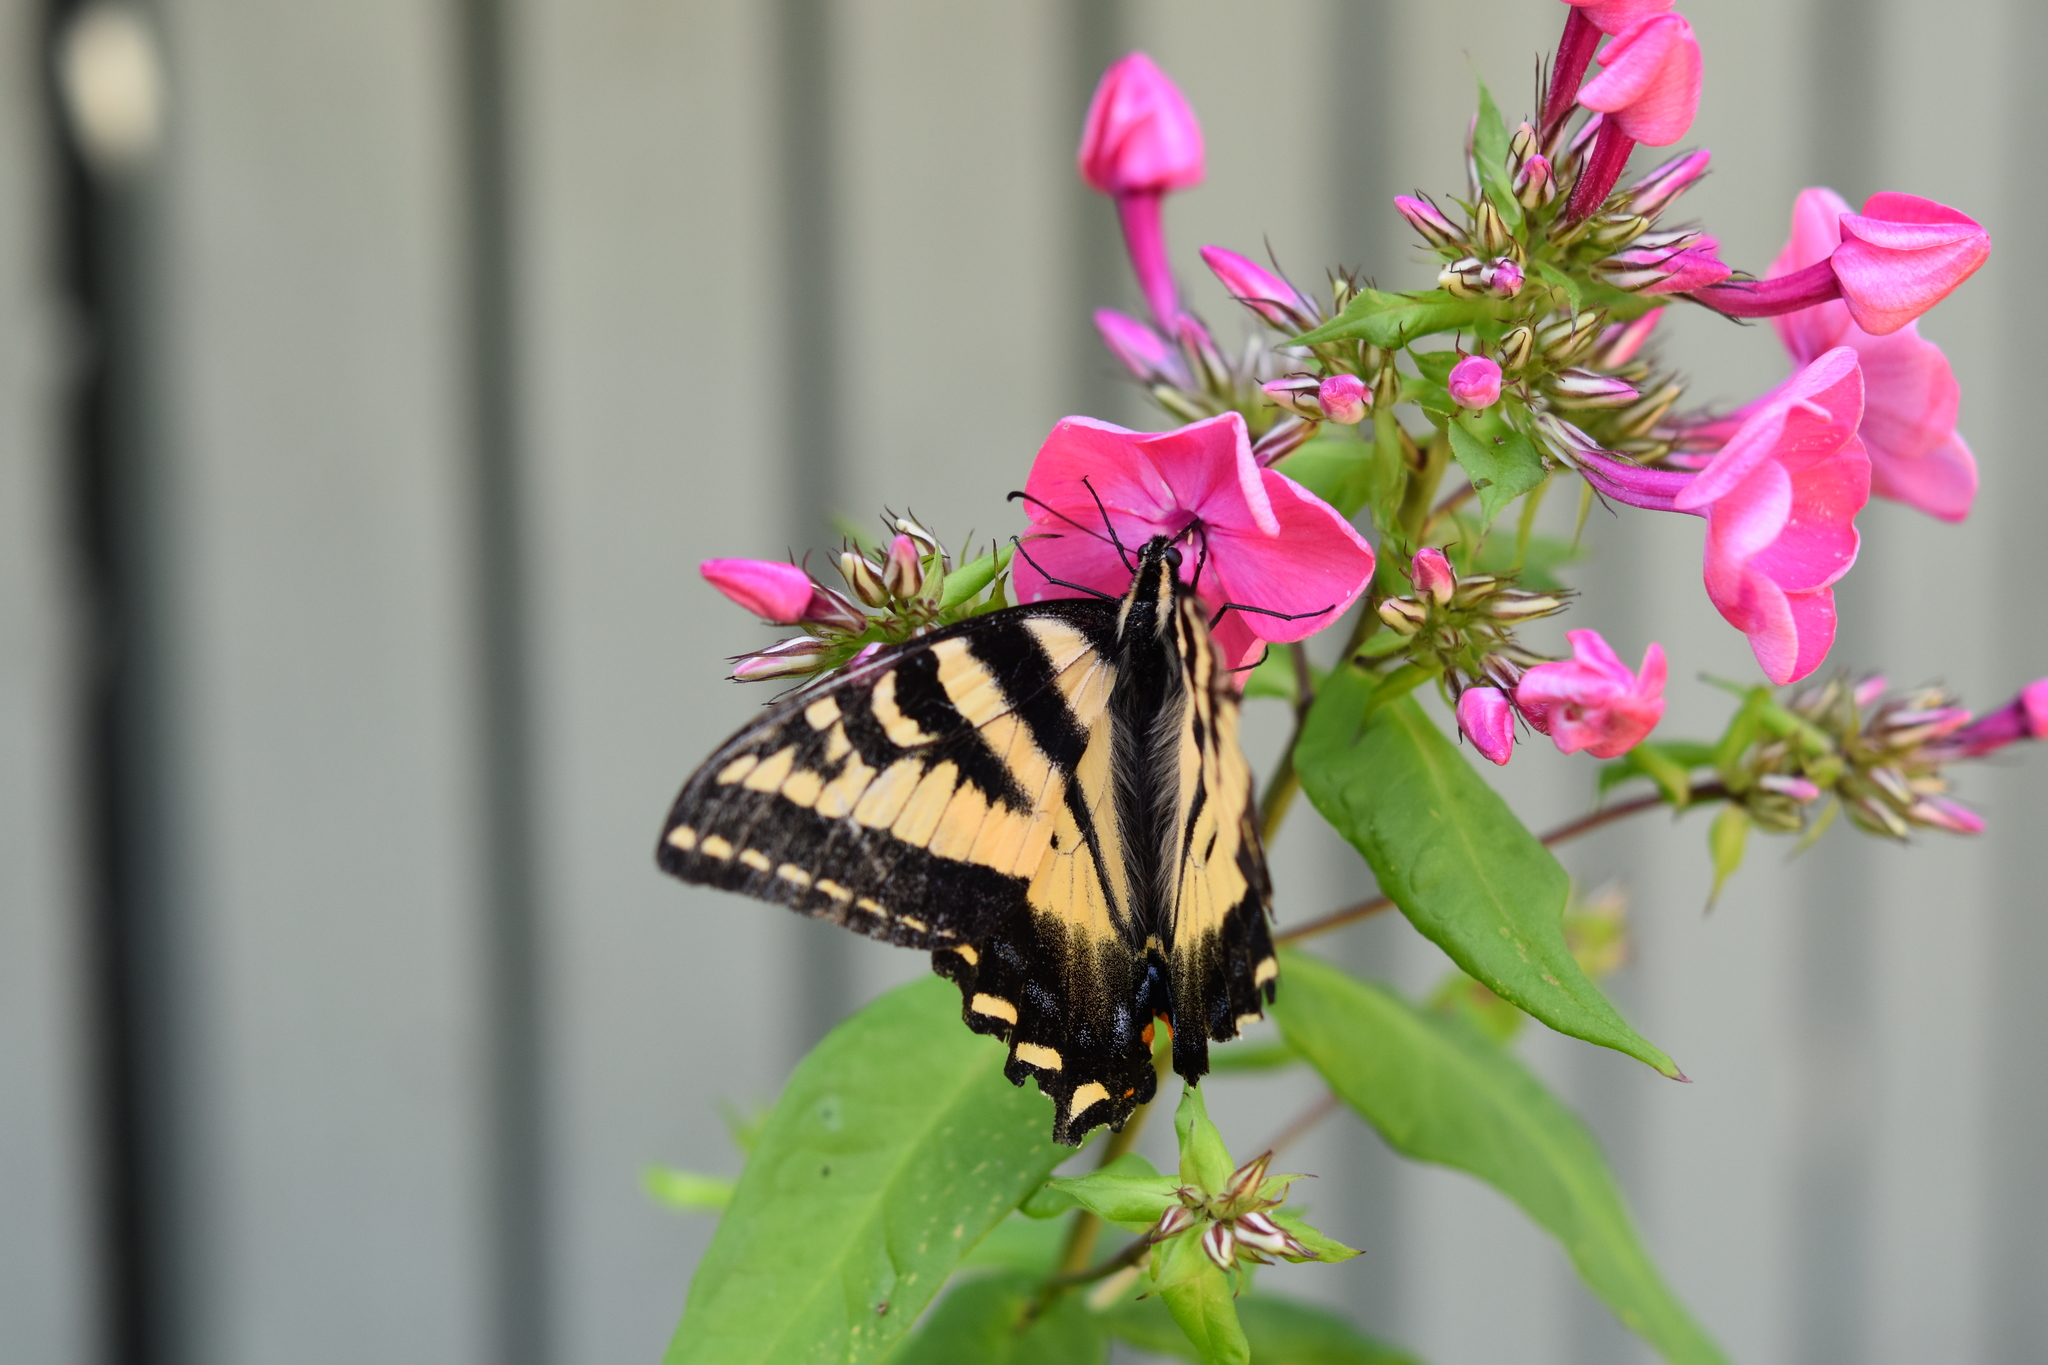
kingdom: Animalia
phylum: Arthropoda
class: Insecta
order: Lepidoptera
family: Papilionidae
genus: Papilio
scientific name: Papilio rutulus
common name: Western tiger swallowtail
